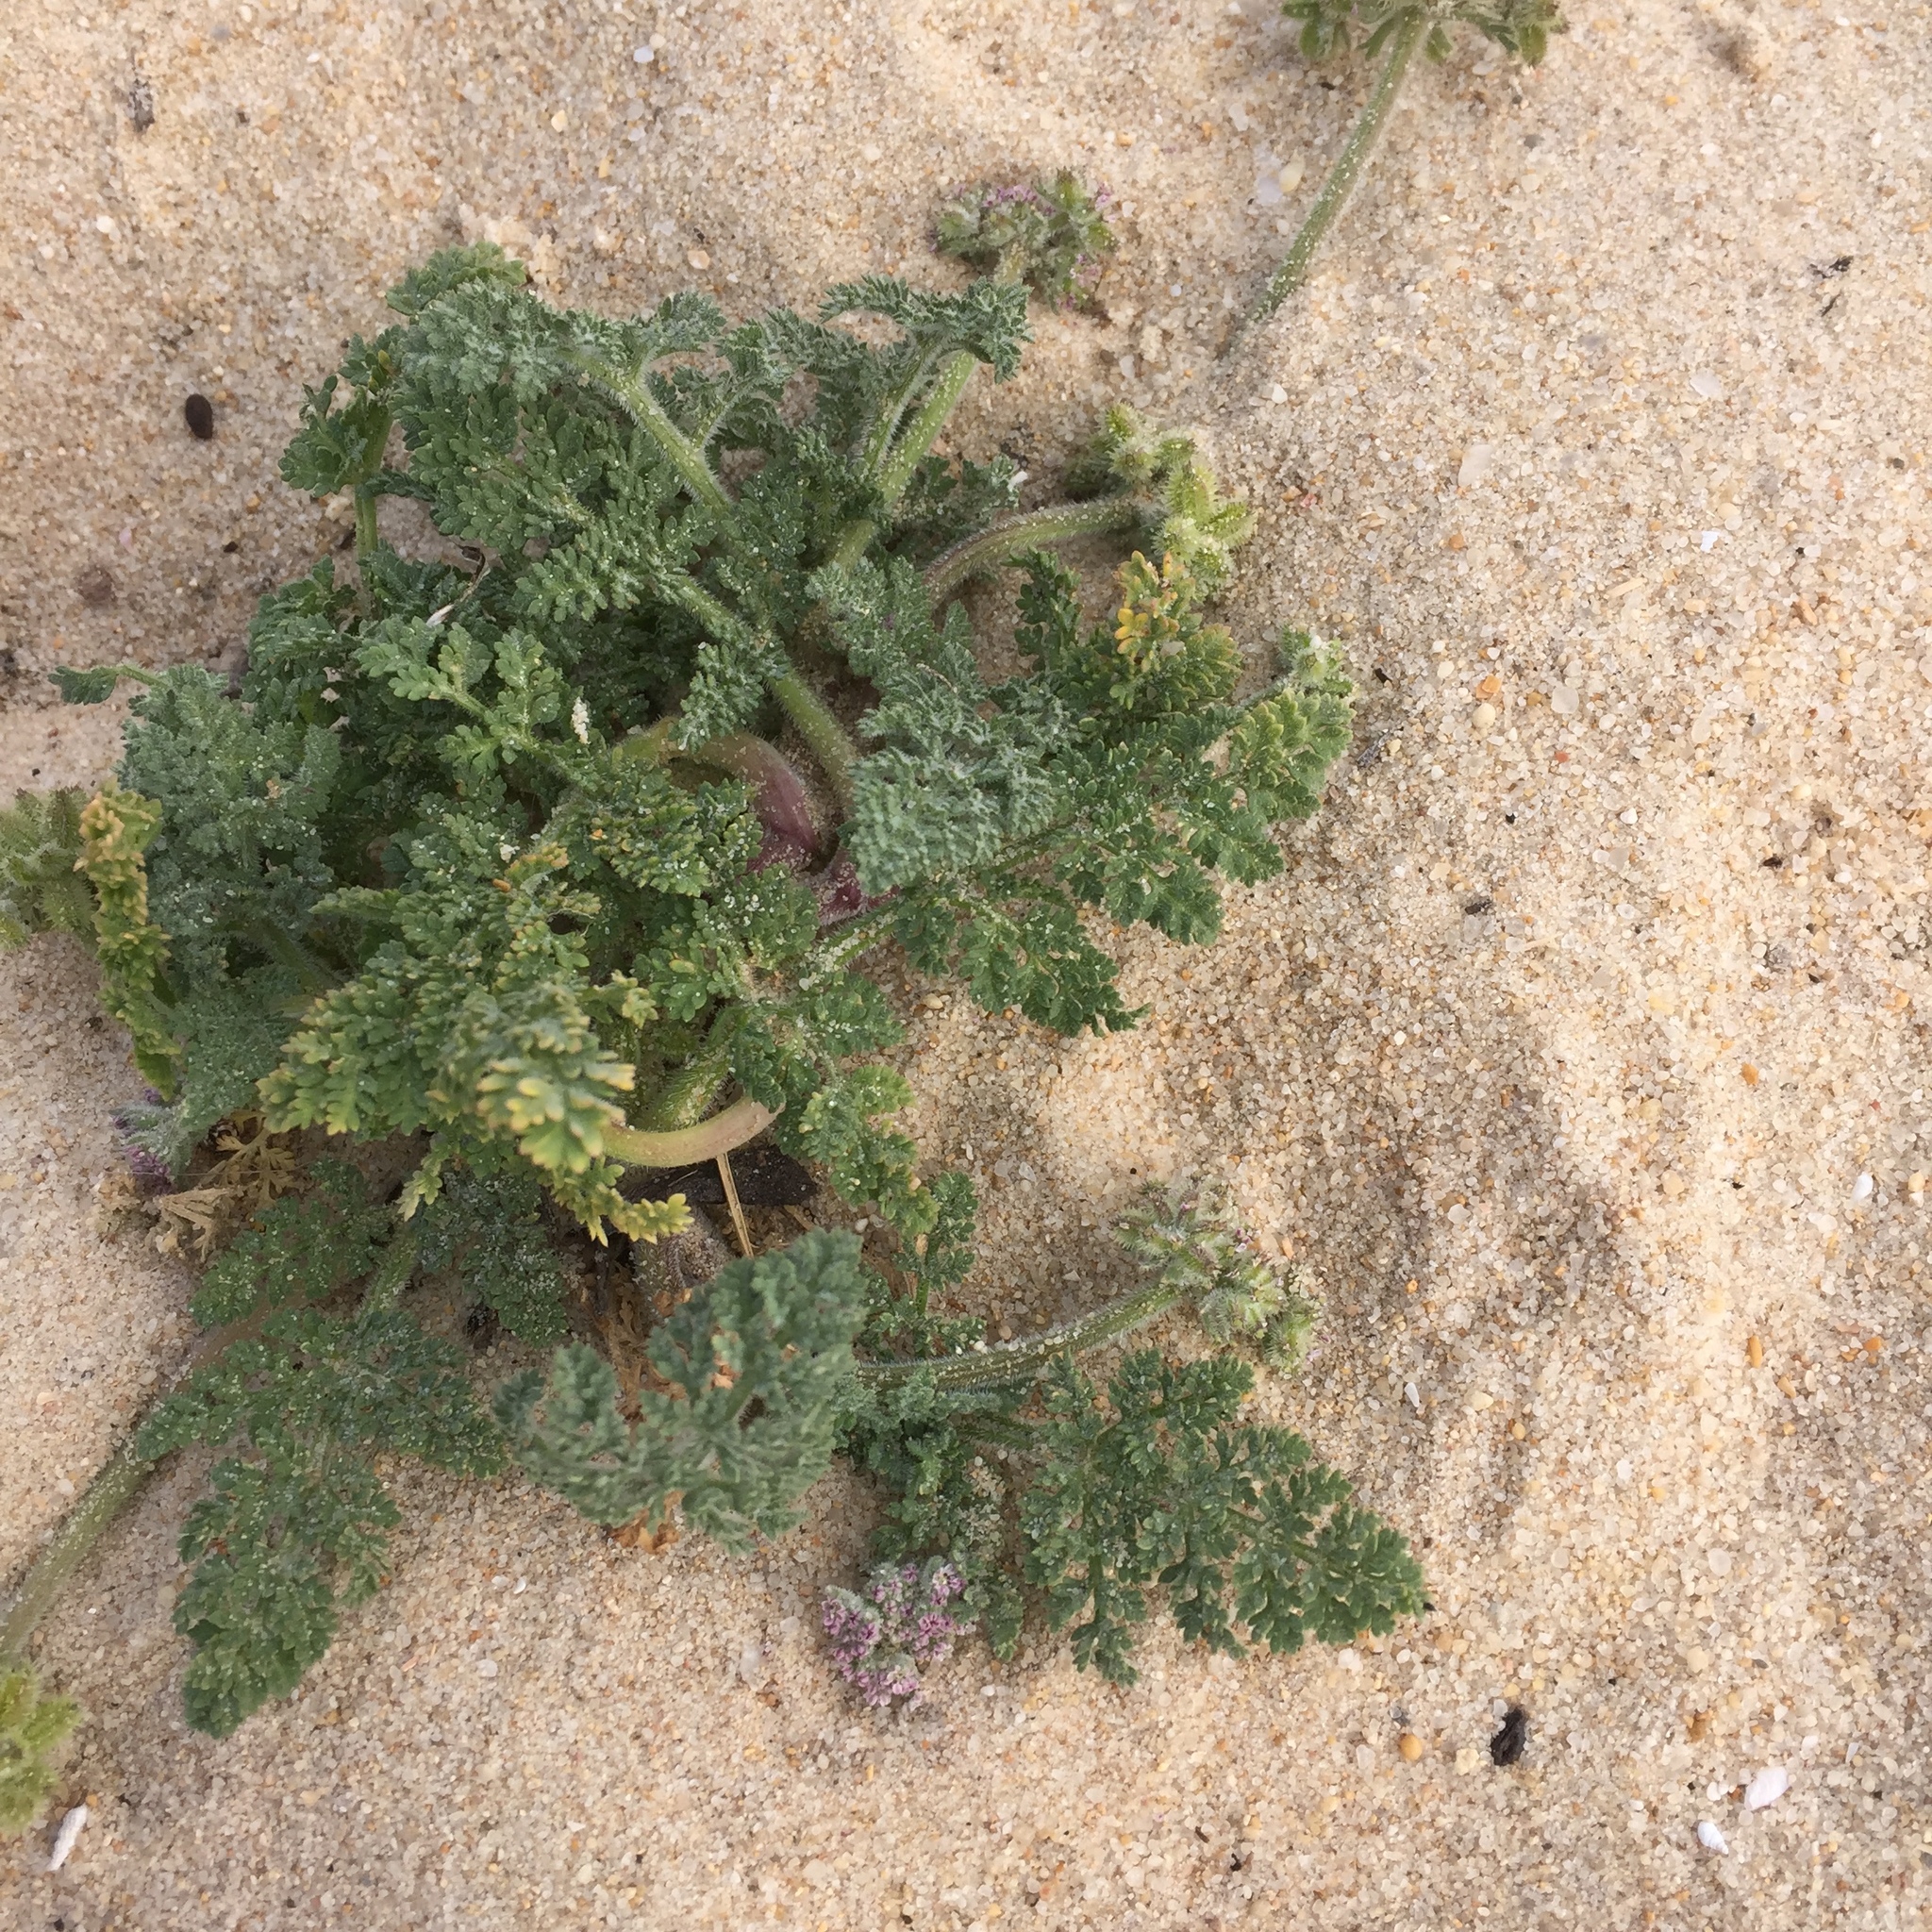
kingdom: Plantae
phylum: Tracheophyta
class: Magnoliopsida
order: Apiales
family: Apiaceae
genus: Daucus
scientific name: Daucus pumilus
